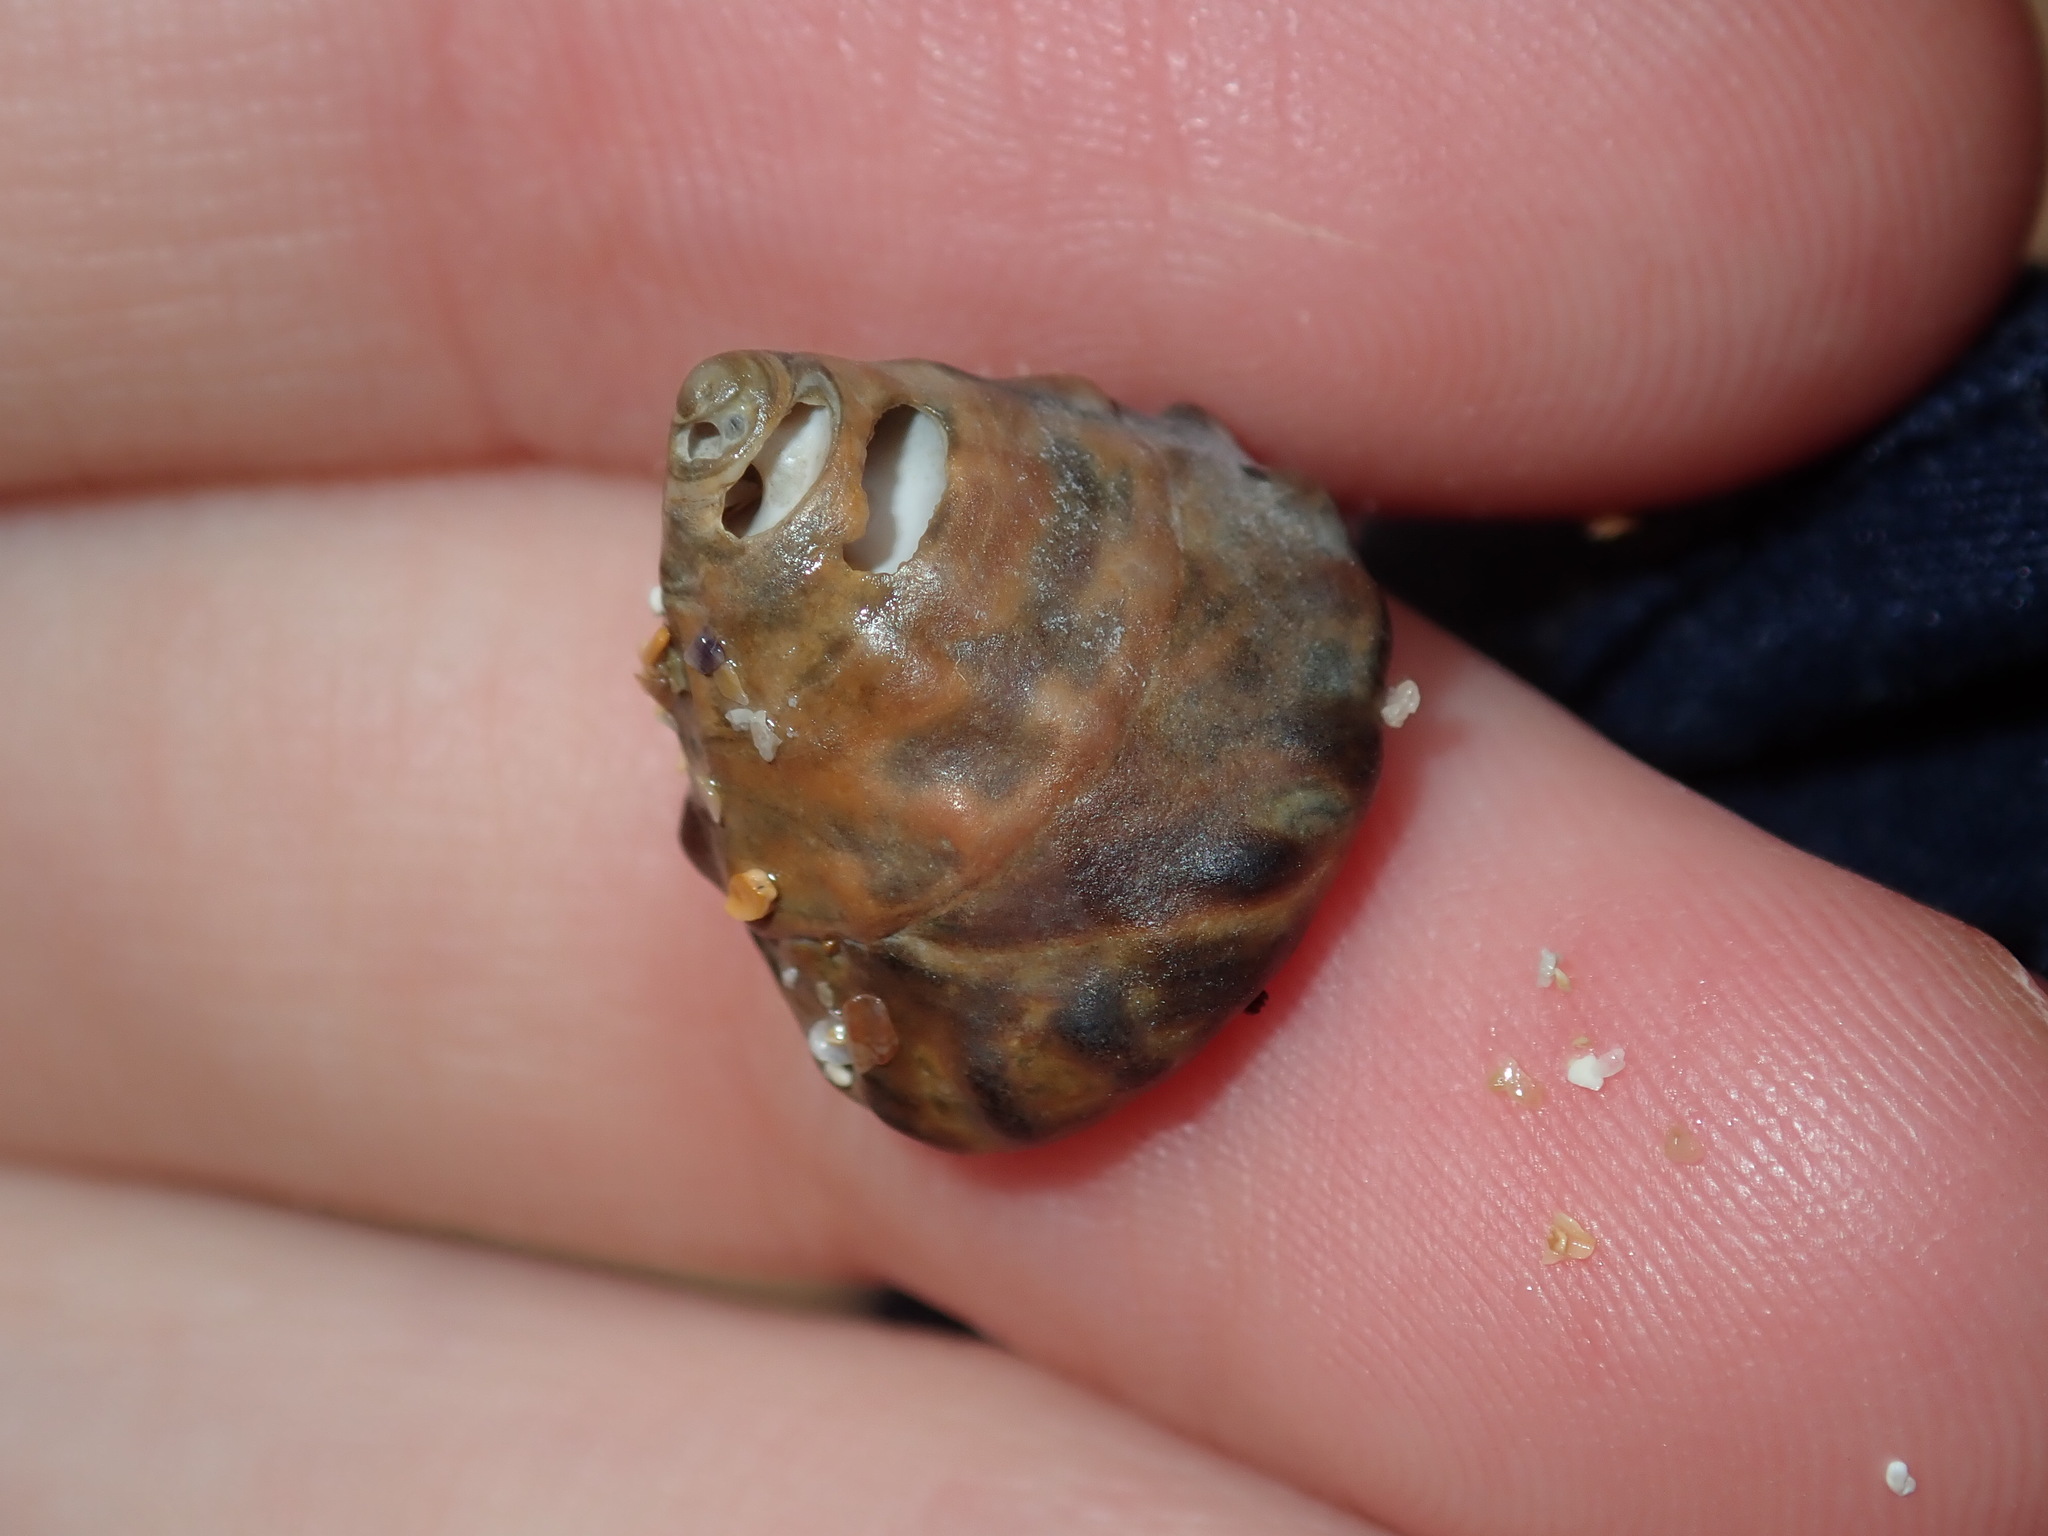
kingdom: Animalia
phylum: Mollusca
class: Gastropoda
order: Littorinimorpha
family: Littorinidae
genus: Bembicium
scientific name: Bembicium auratum
